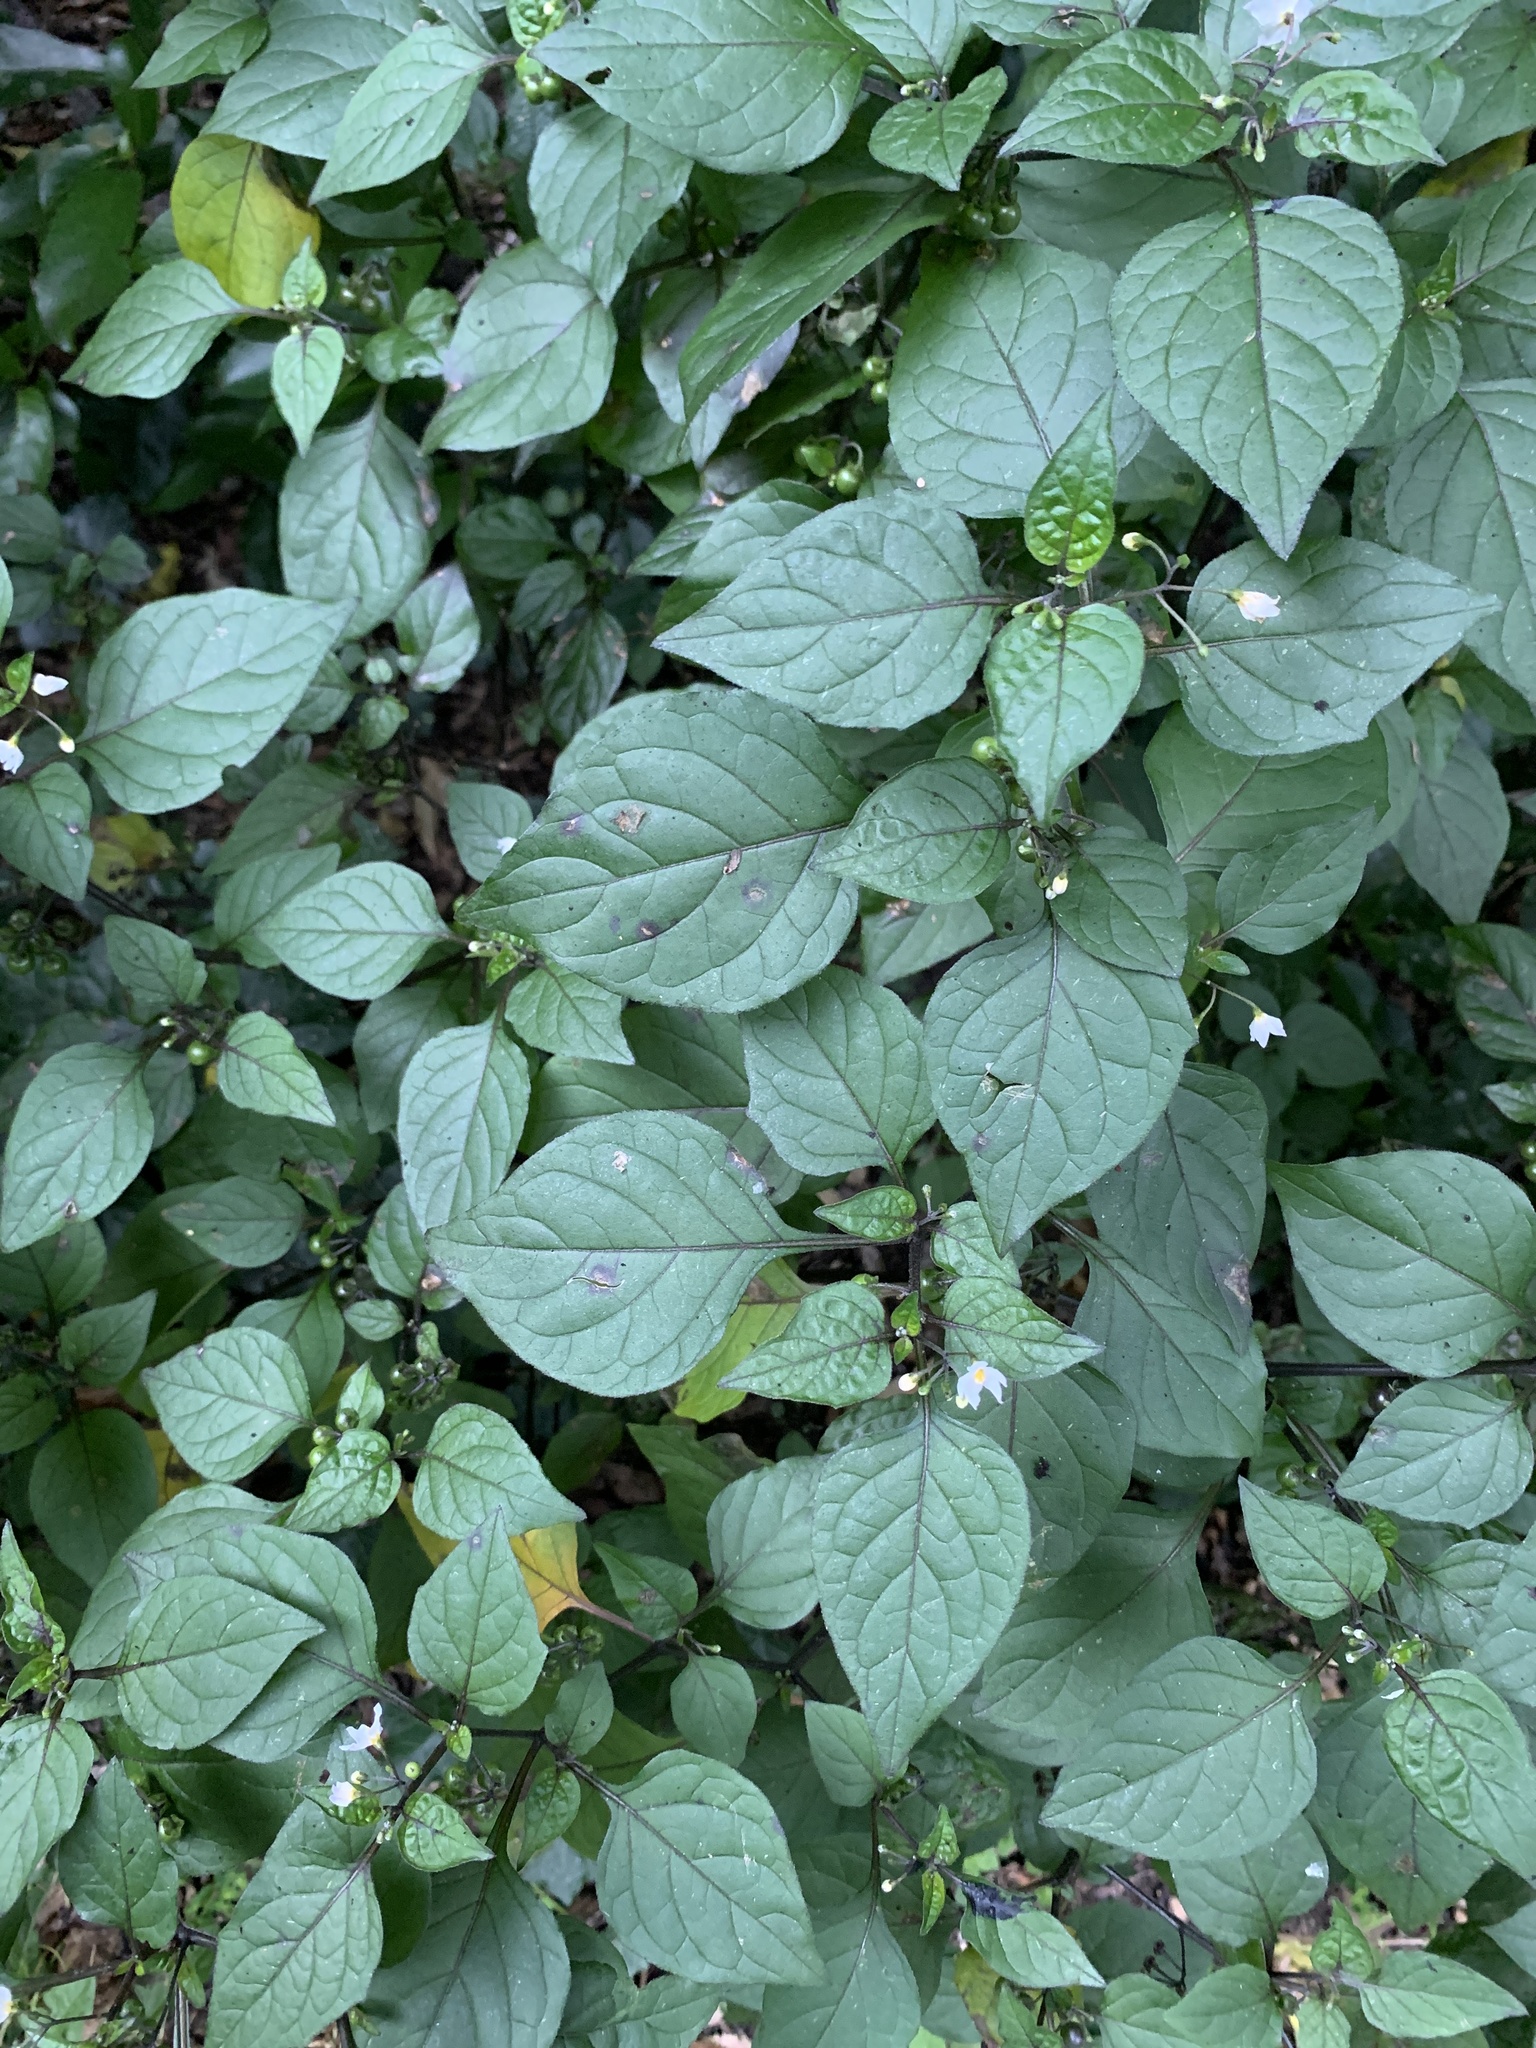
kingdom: Plantae
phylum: Tracheophyta
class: Magnoliopsida
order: Solanales
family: Solanaceae
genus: Solanum
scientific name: Solanum nigrum
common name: Black nightshade
